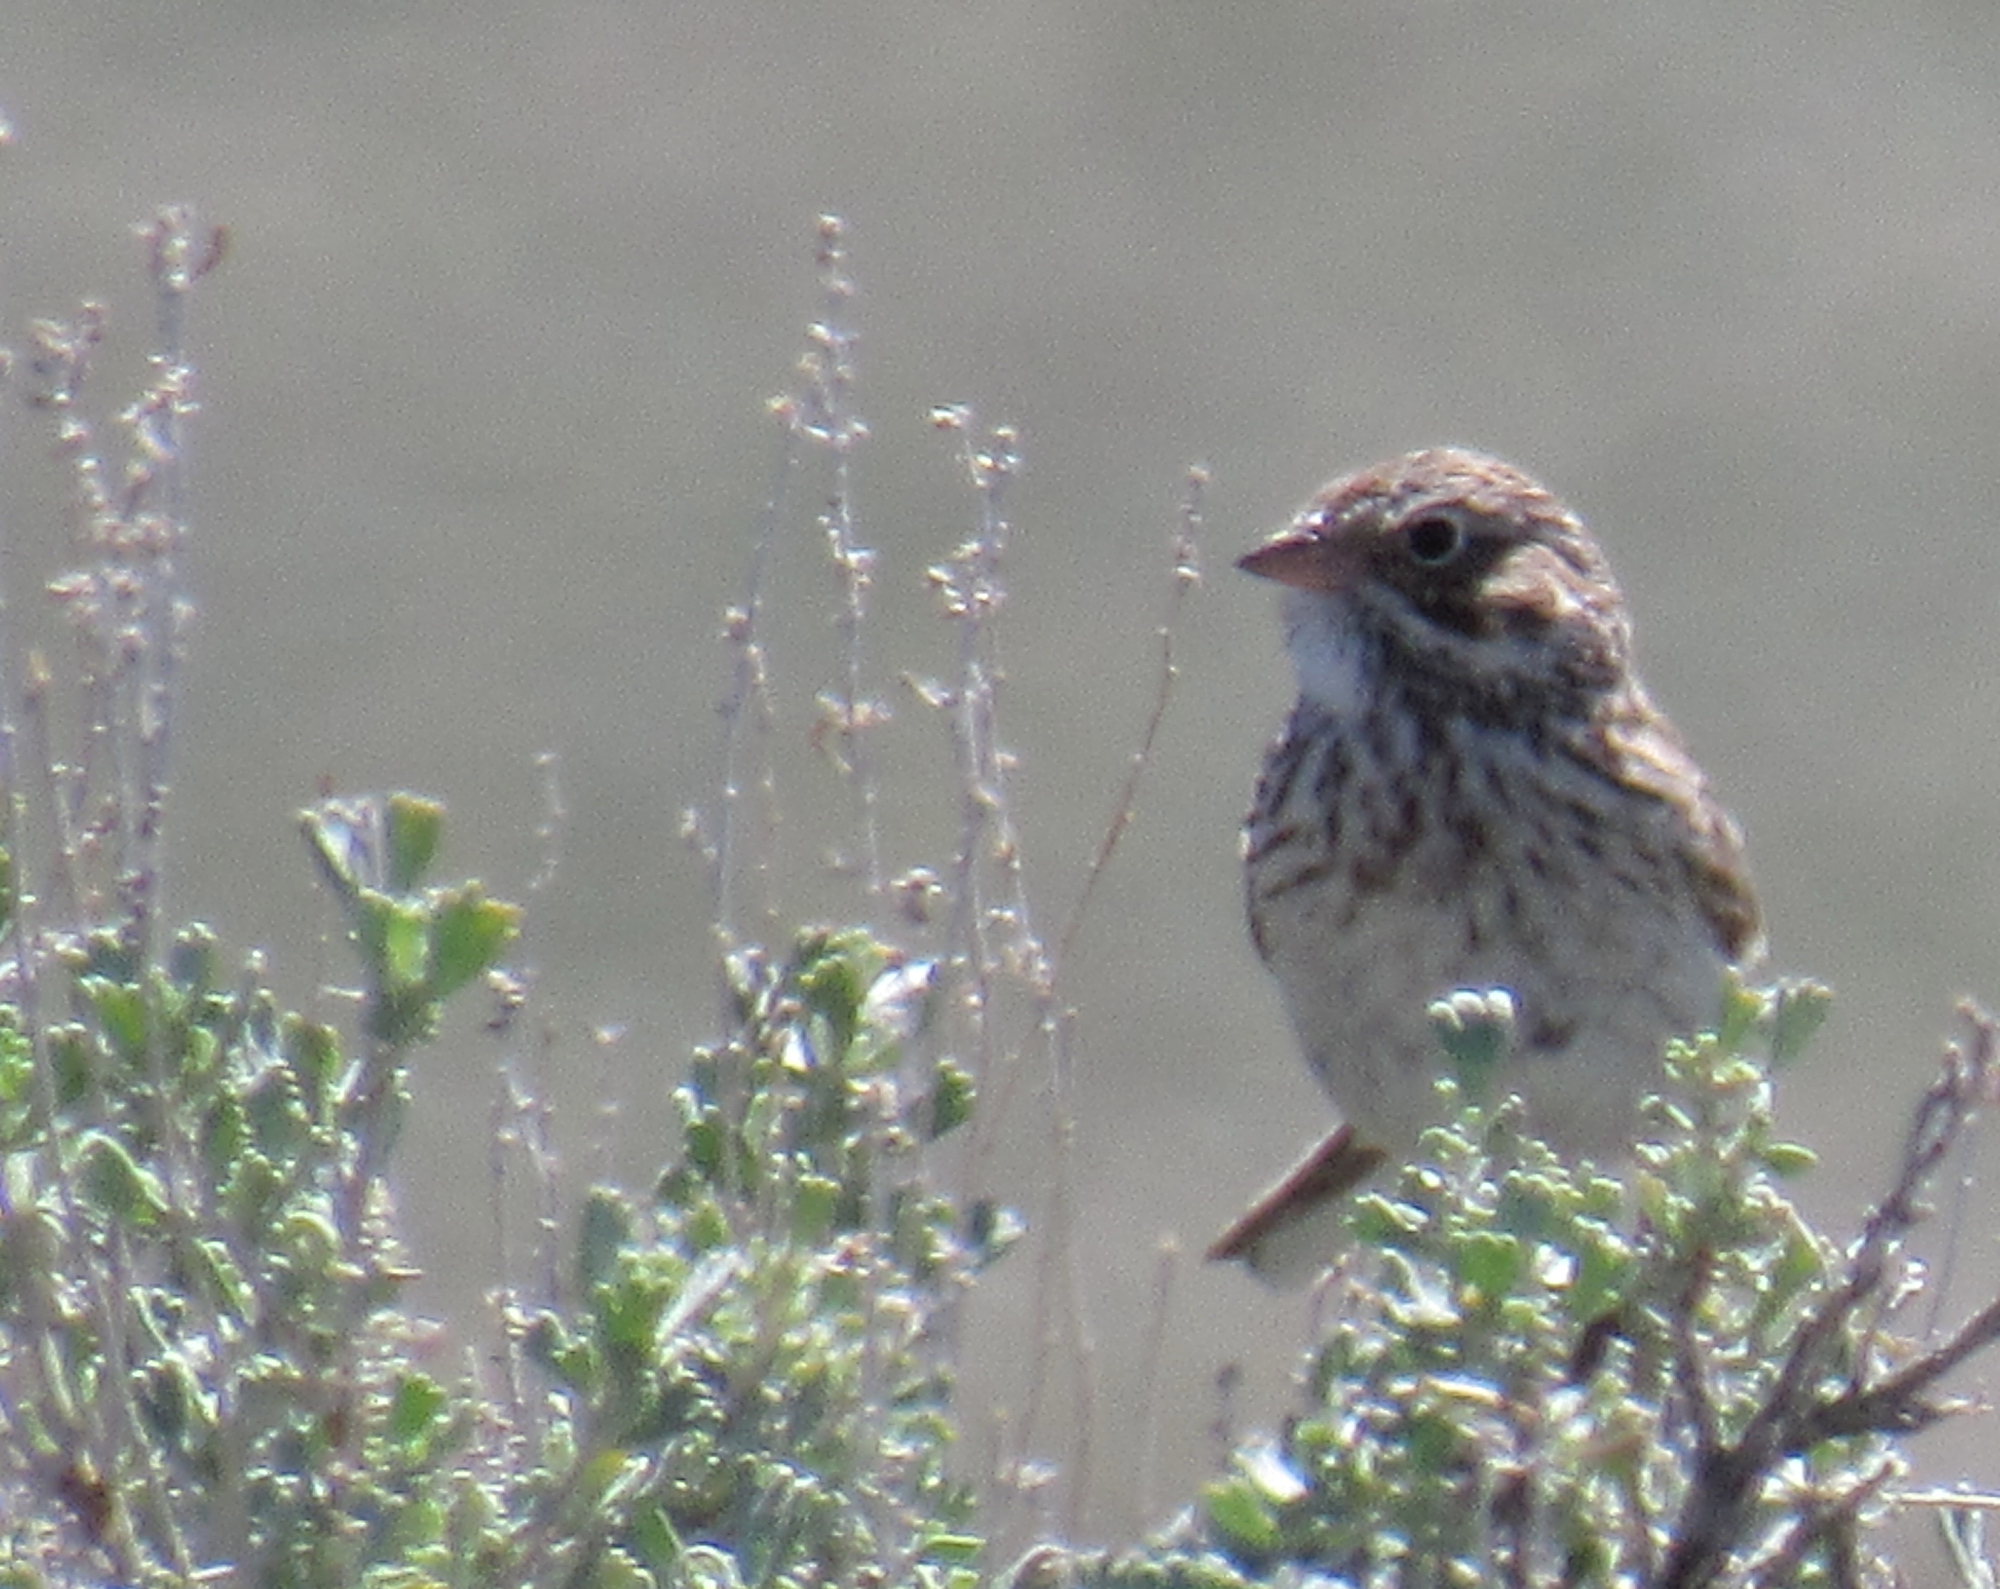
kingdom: Animalia
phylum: Chordata
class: Aves
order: Passeriformes
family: Passerellidae
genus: Pooecetes
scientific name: Pooecetes gramineus
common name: Vesper sparrow
